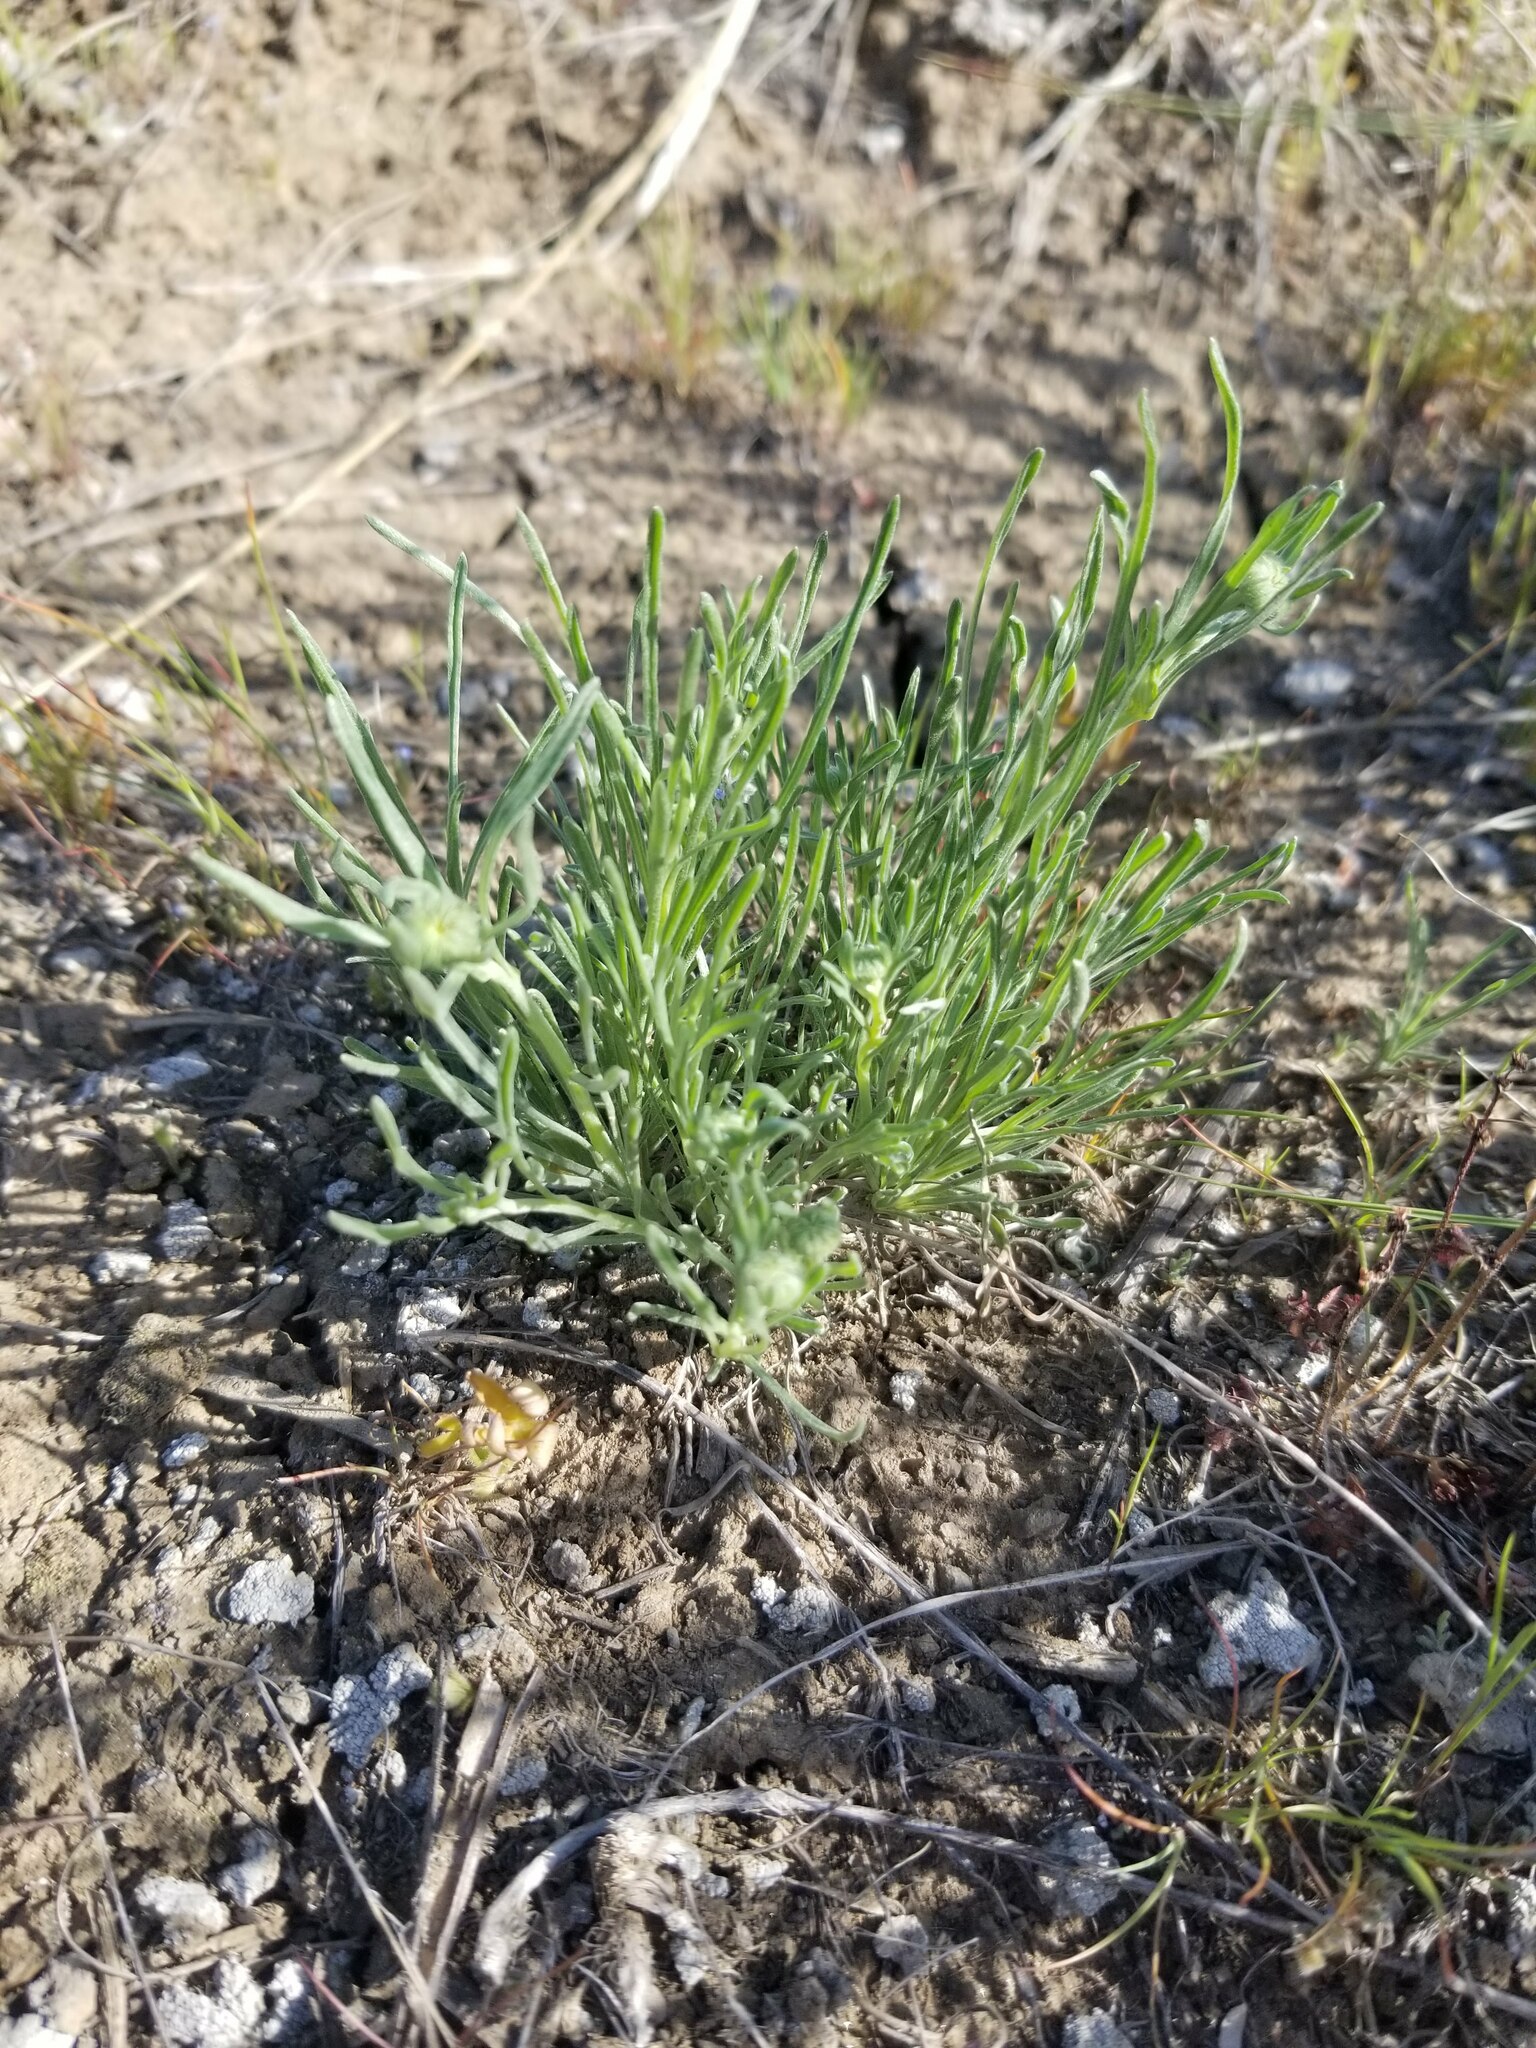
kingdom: Plantae
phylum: Tracheophyta
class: Magnoliopsida
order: Asterales
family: Asteraceae
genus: Erigeron
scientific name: Erigeron linearis
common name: Desert yellow fleabane
